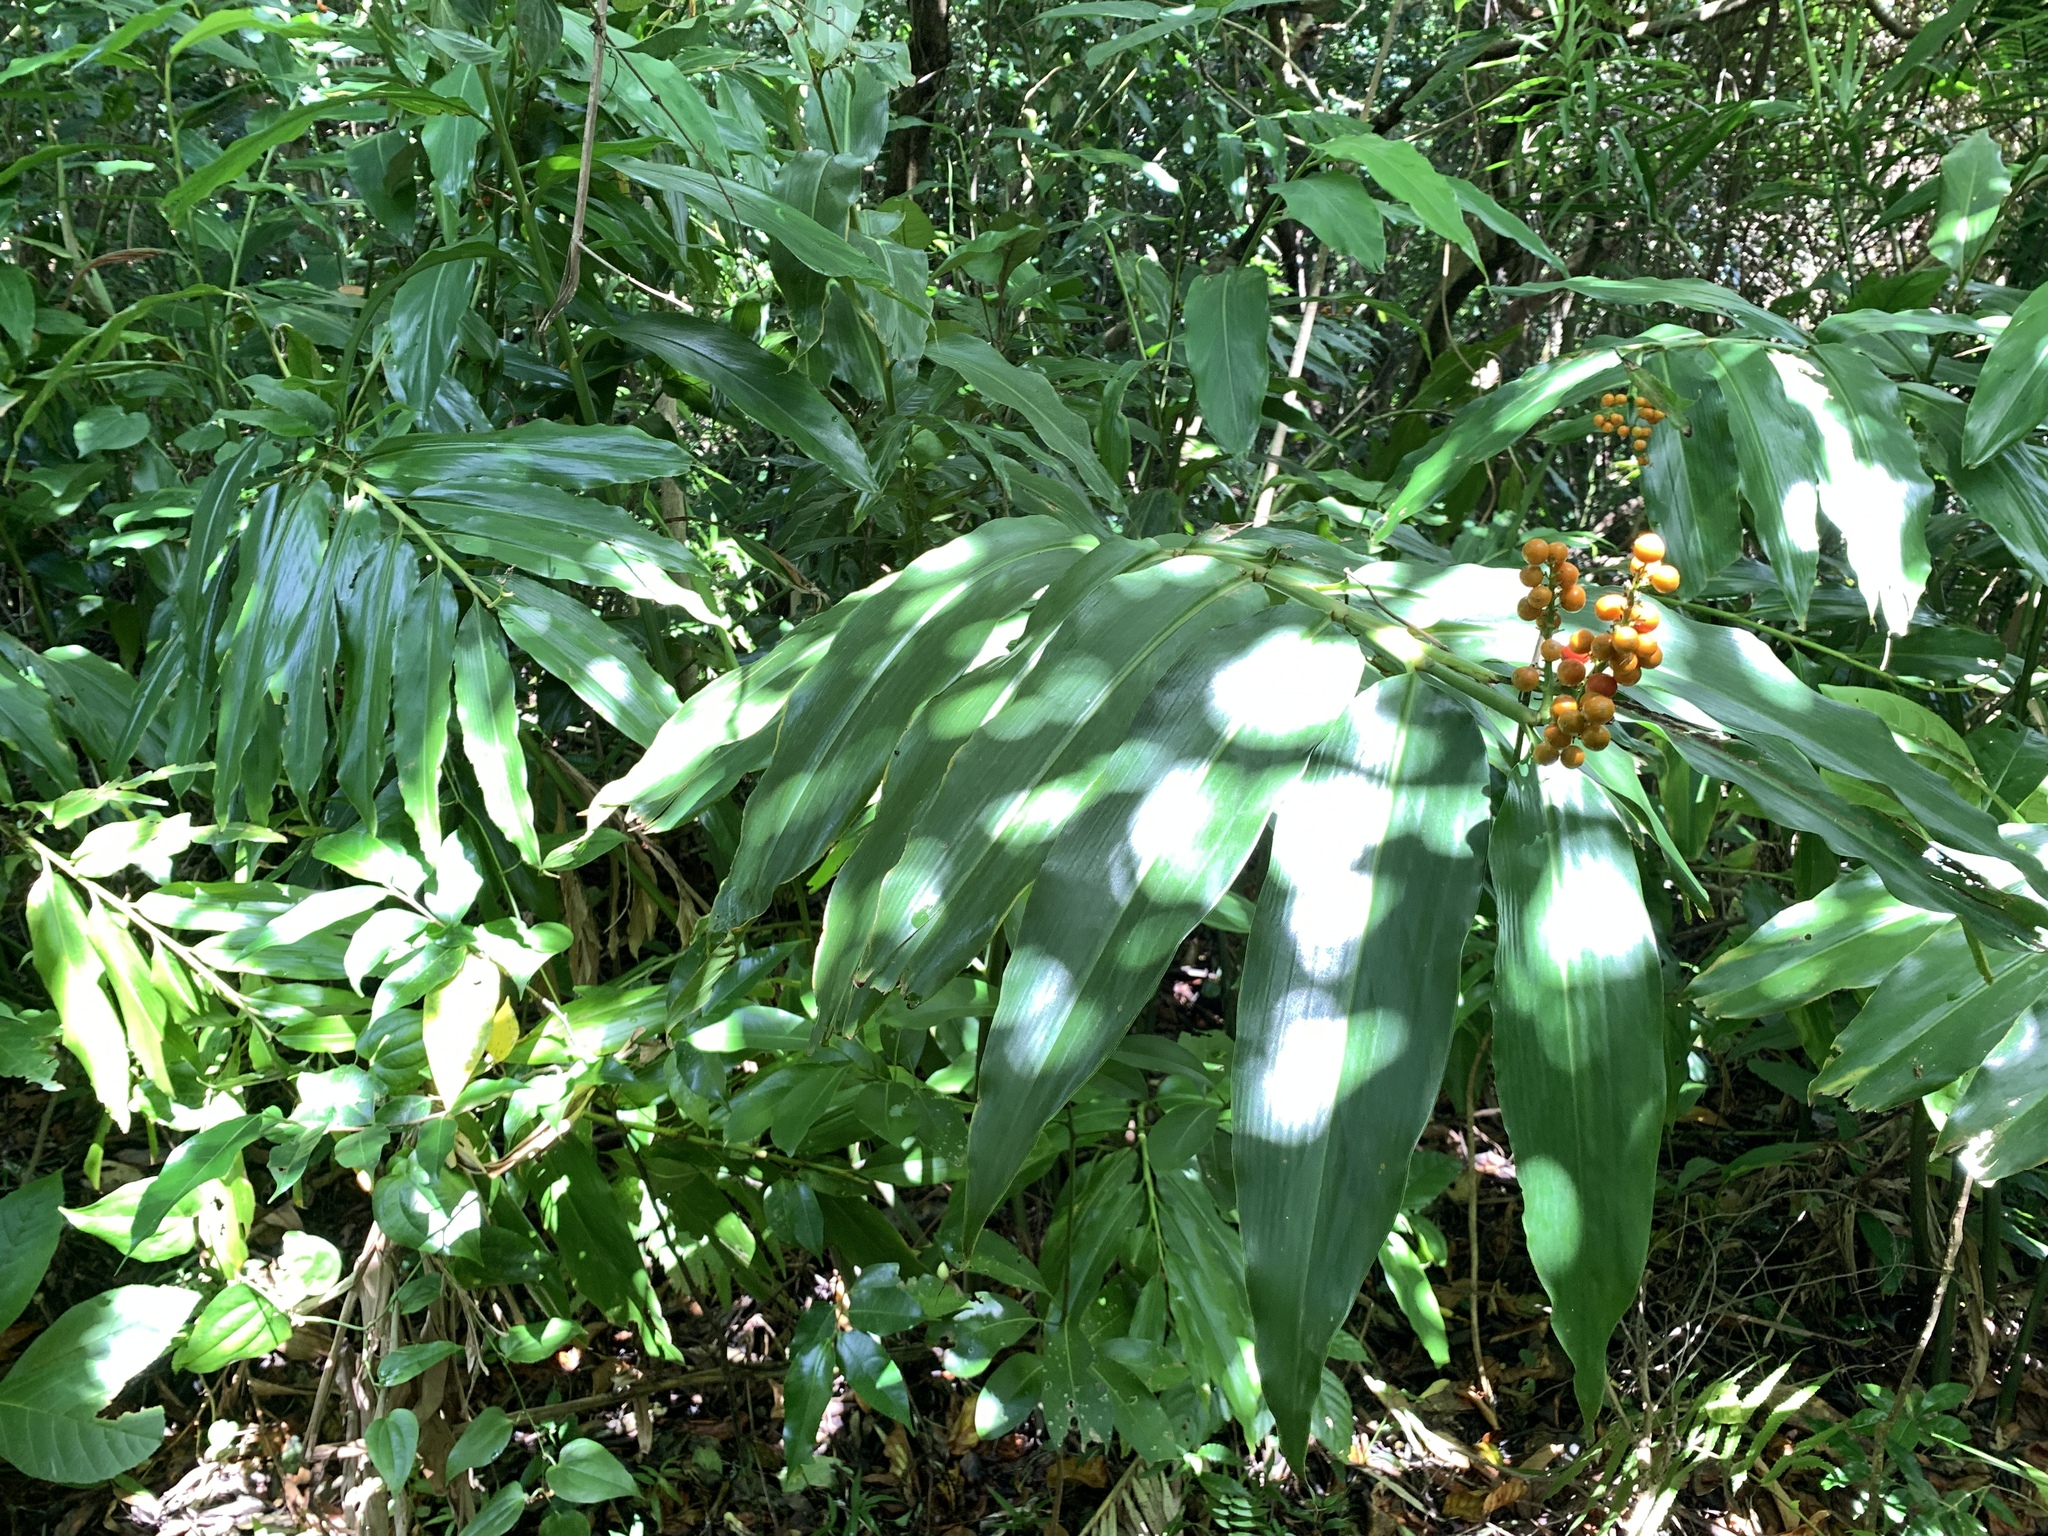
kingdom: Plantae
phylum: Tracheophyta
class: Liliopsida
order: Zingiberales
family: Zingiberaceae
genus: Alpinia
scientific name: Alpinia flabellata
